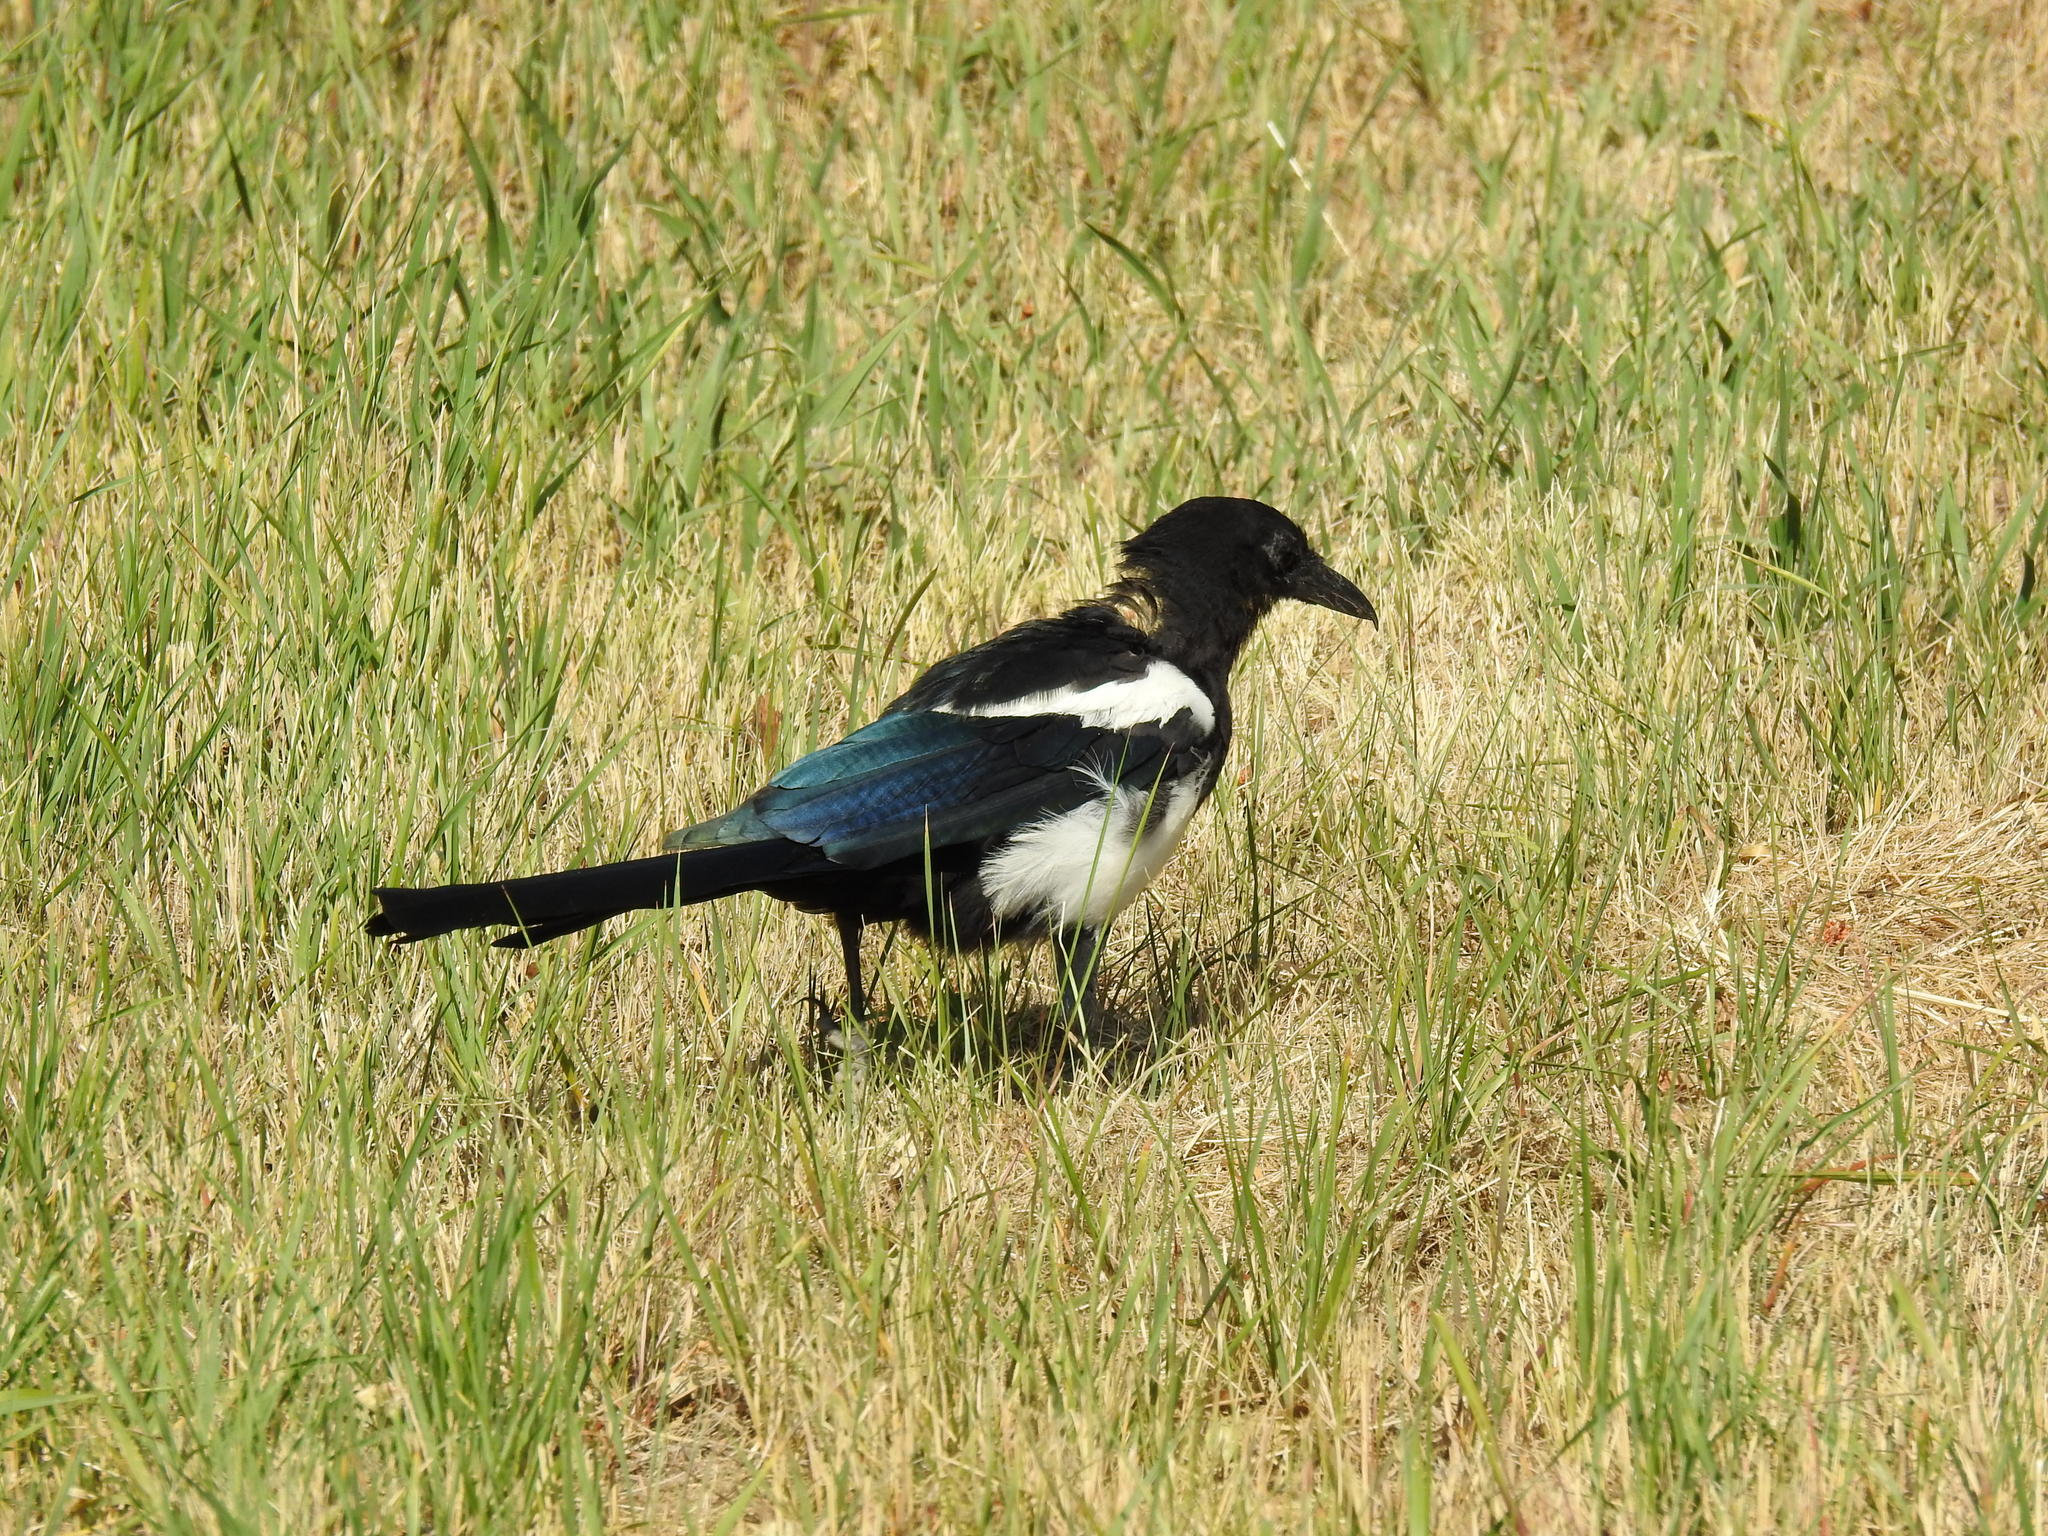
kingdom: Animalia
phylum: Chordata
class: Aves
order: Passeriformes
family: Corvidae
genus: Pica
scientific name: Pica hudsonia
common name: Black-billed magpie
